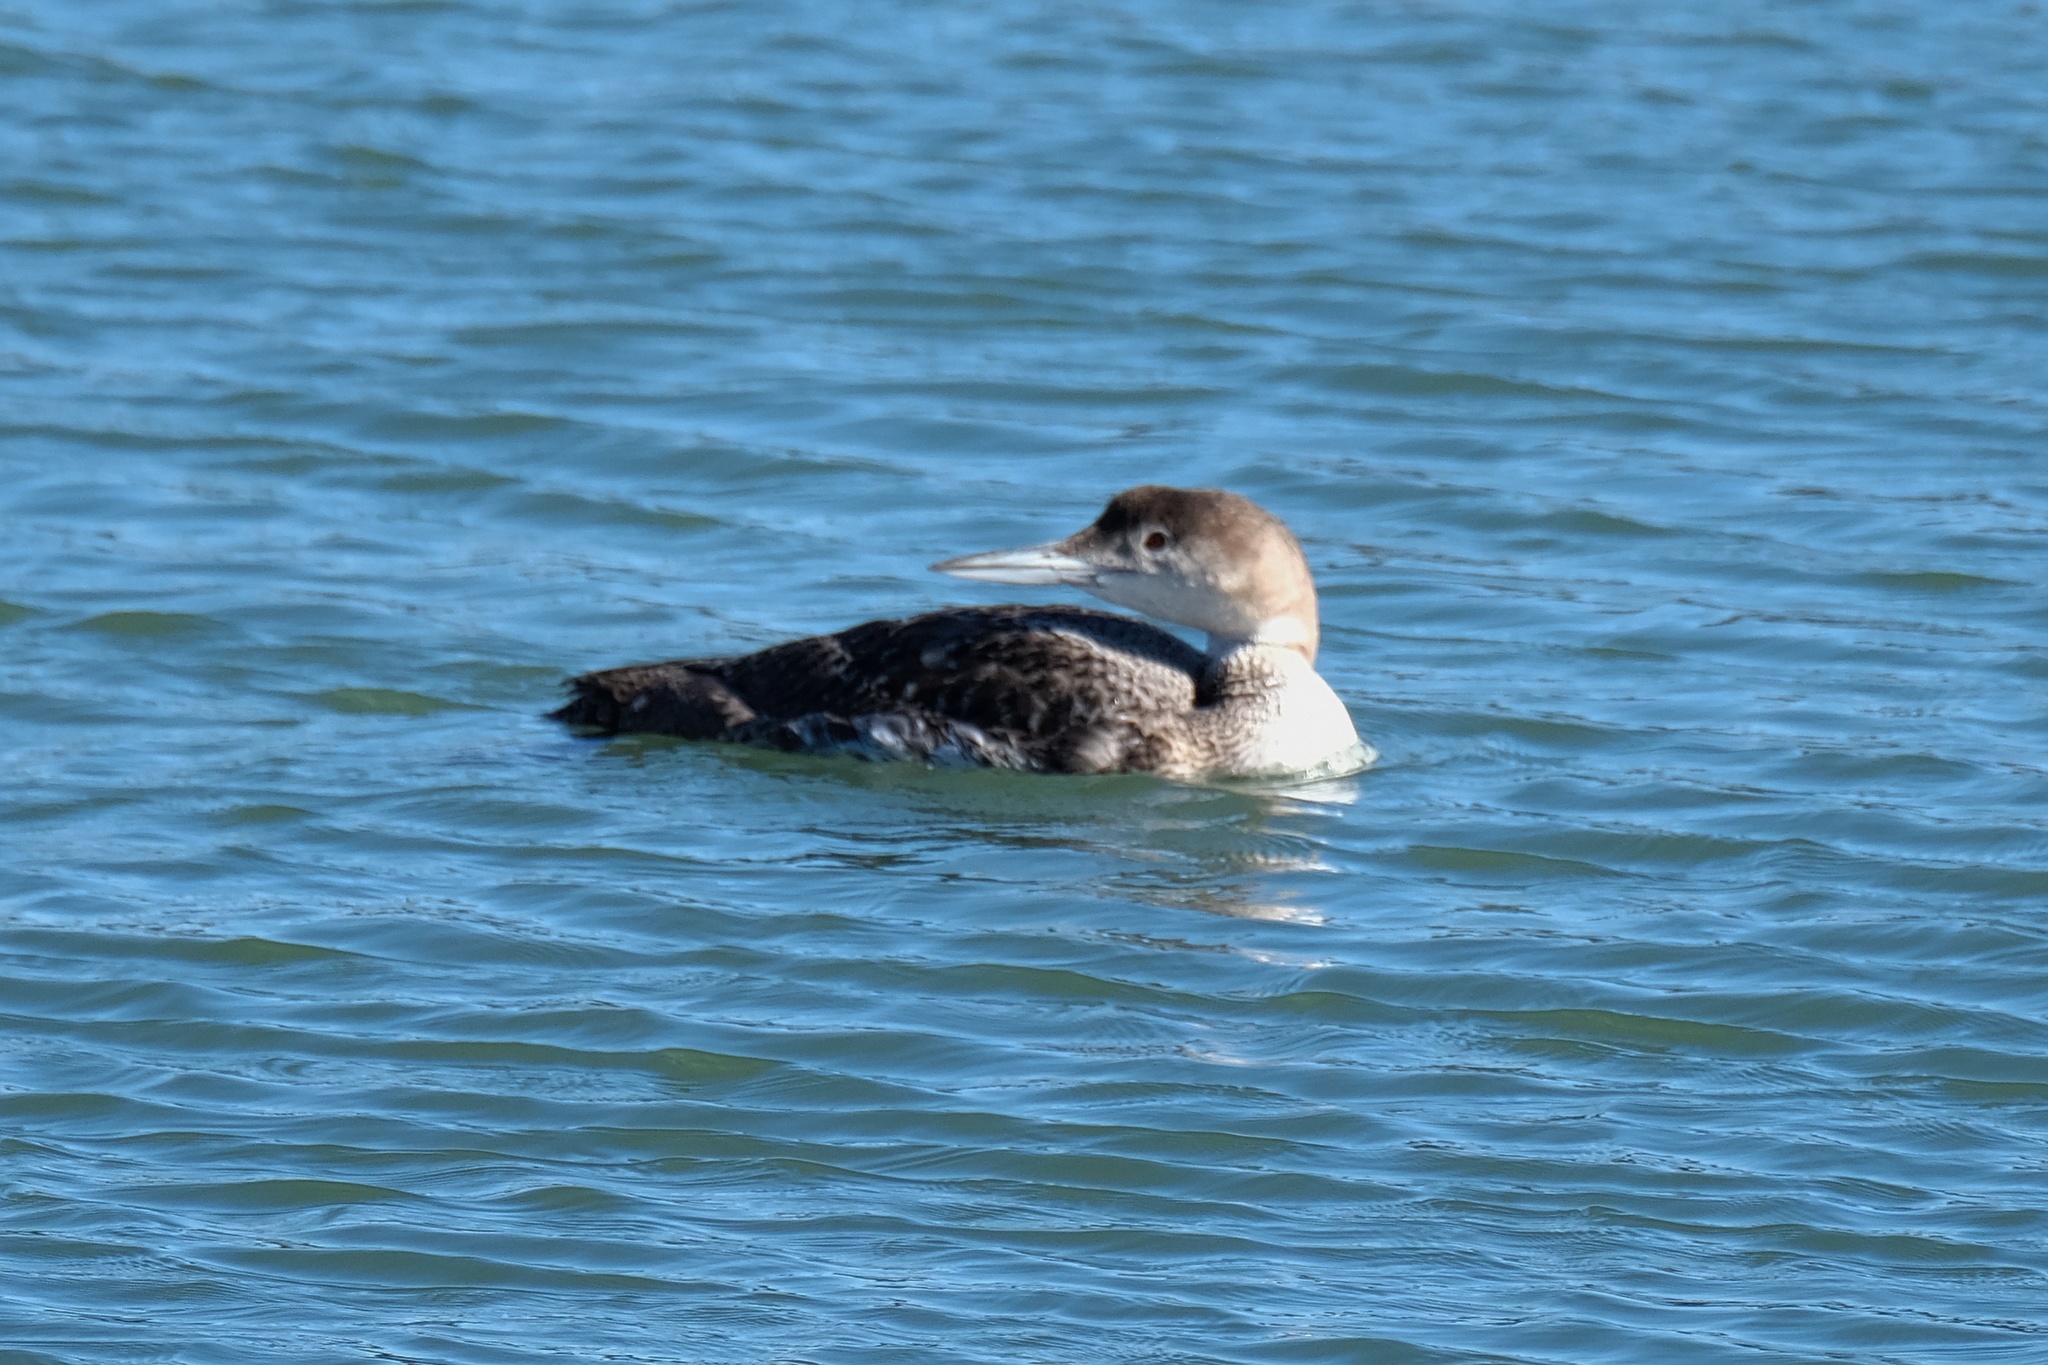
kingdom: Animalia
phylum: Chordata
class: Aves
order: Gaviiformes
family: Gaviidae
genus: Gavia
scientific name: Gavia immer
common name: Common loon
